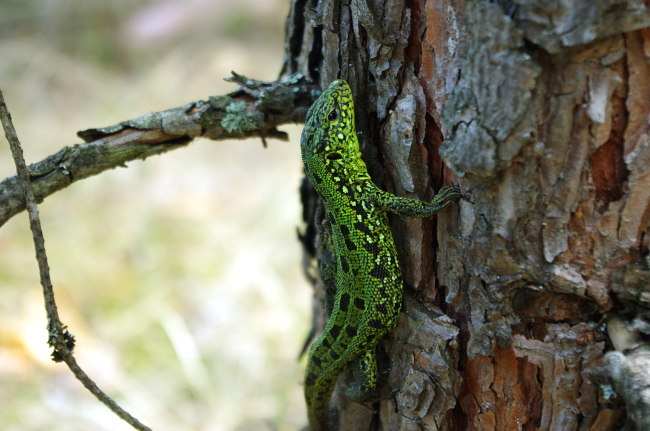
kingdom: Plantae
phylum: Tracheophyta
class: Pinopsida
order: Pinales
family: Pinaceae
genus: Pinus
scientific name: Pinus sylvestris
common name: Scots pine
